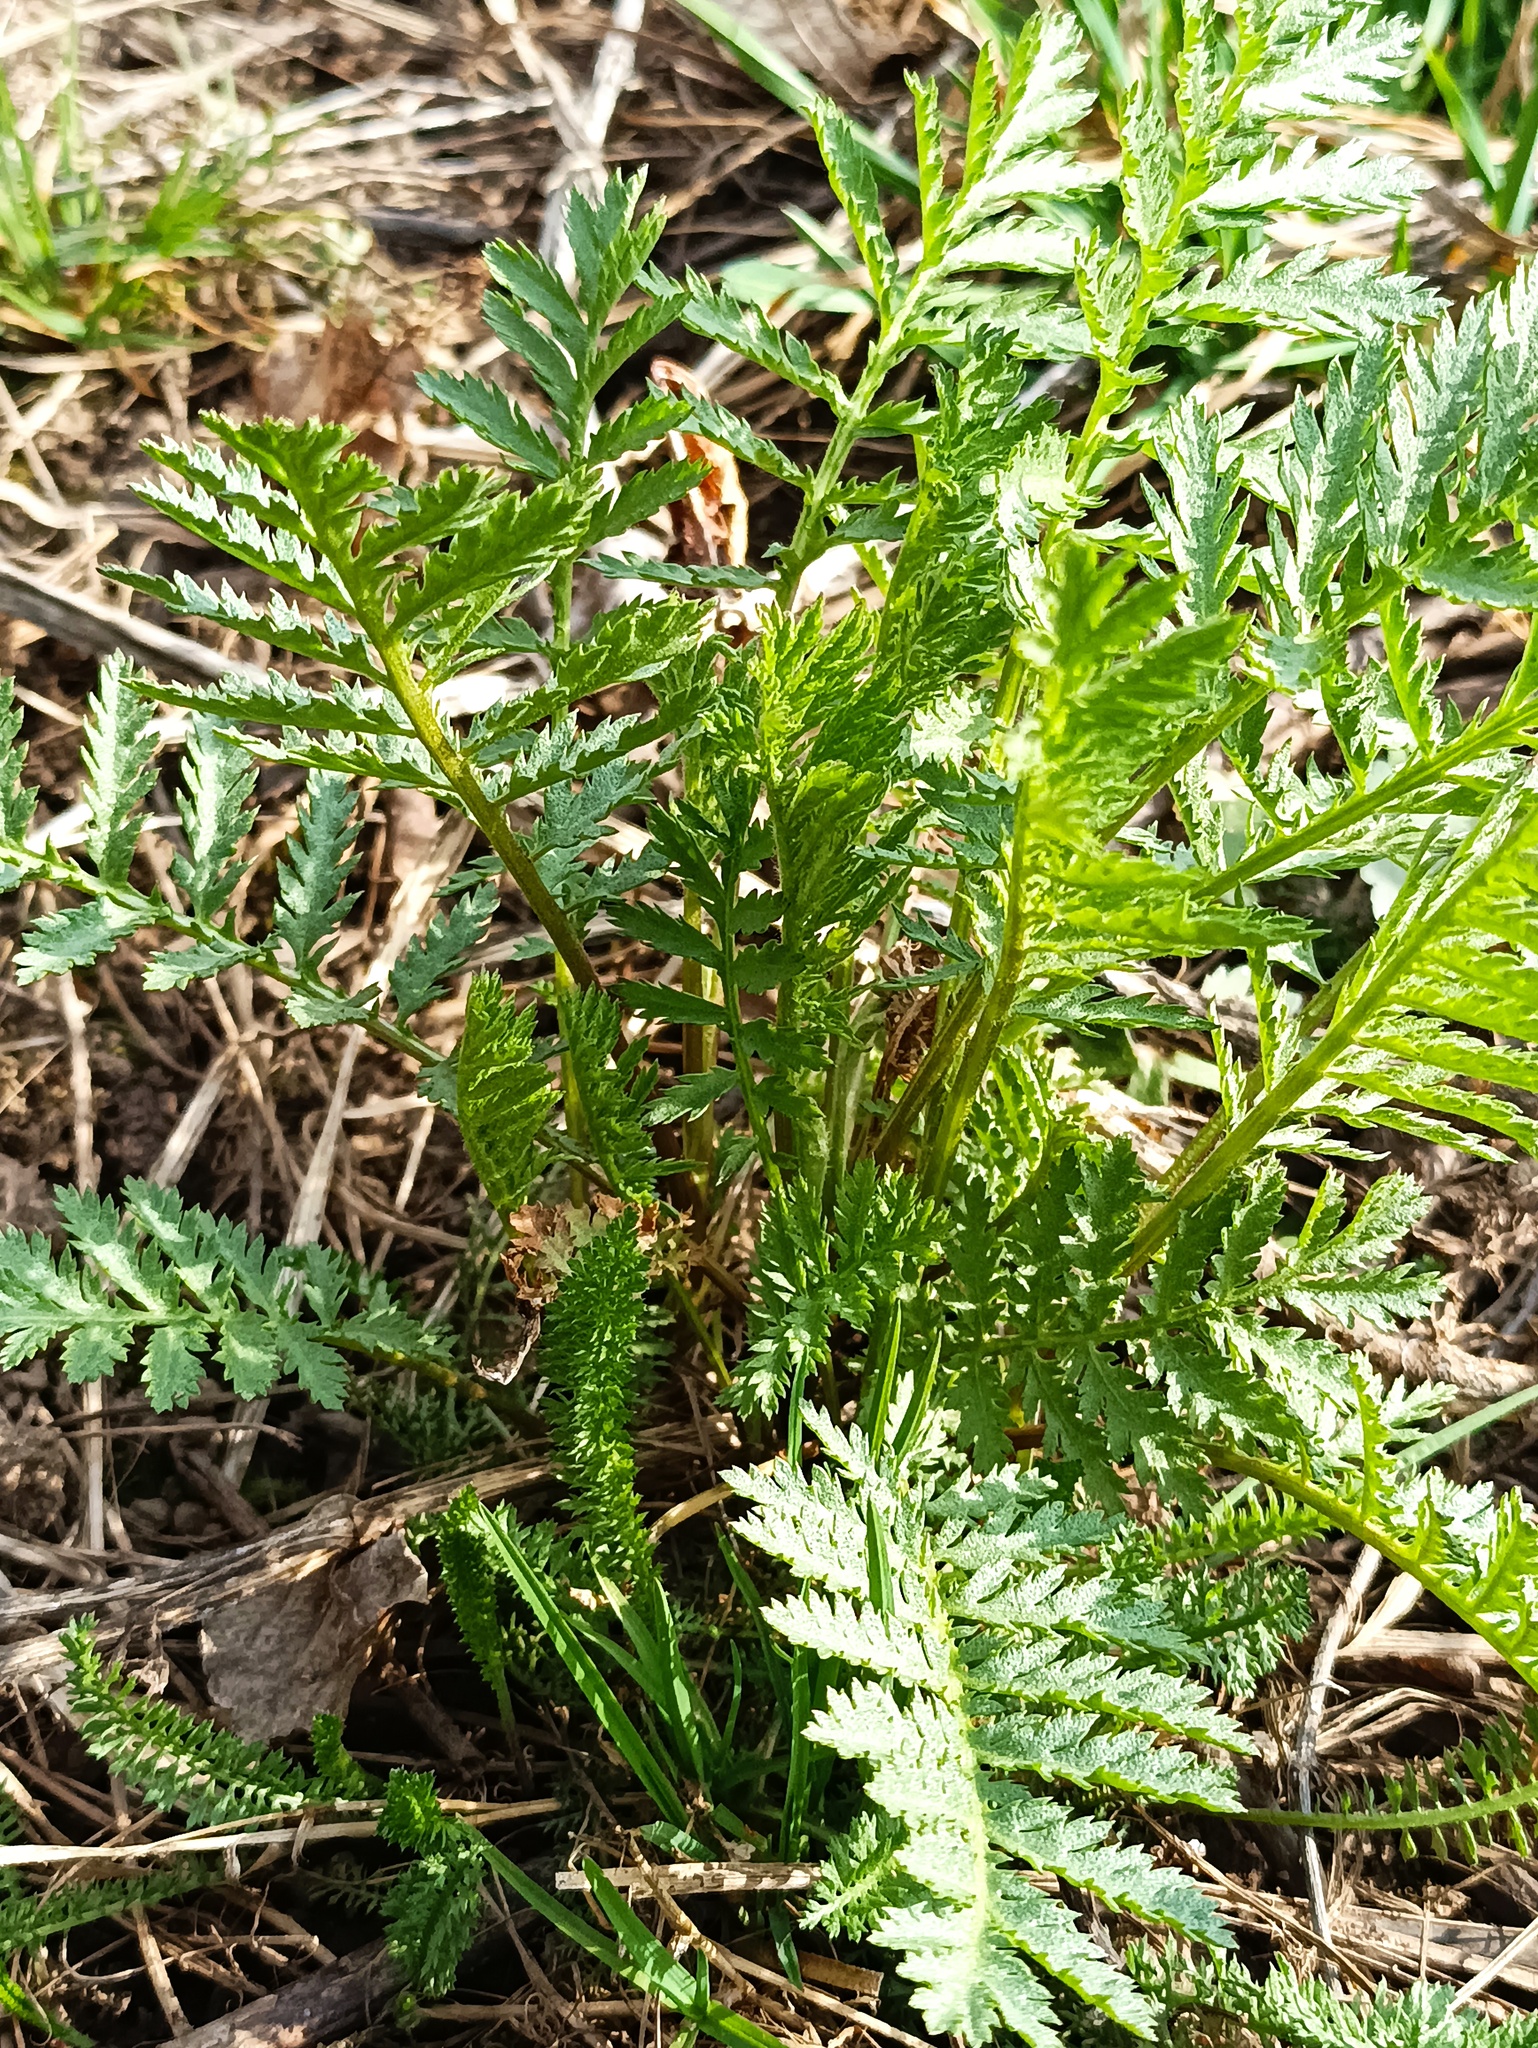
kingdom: Plantae
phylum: Tracheophyta
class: Magnoliopsida
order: Asterales
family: Asteraceae
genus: Tanacetum
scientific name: Tanacetum vulgare
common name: Common tansy
